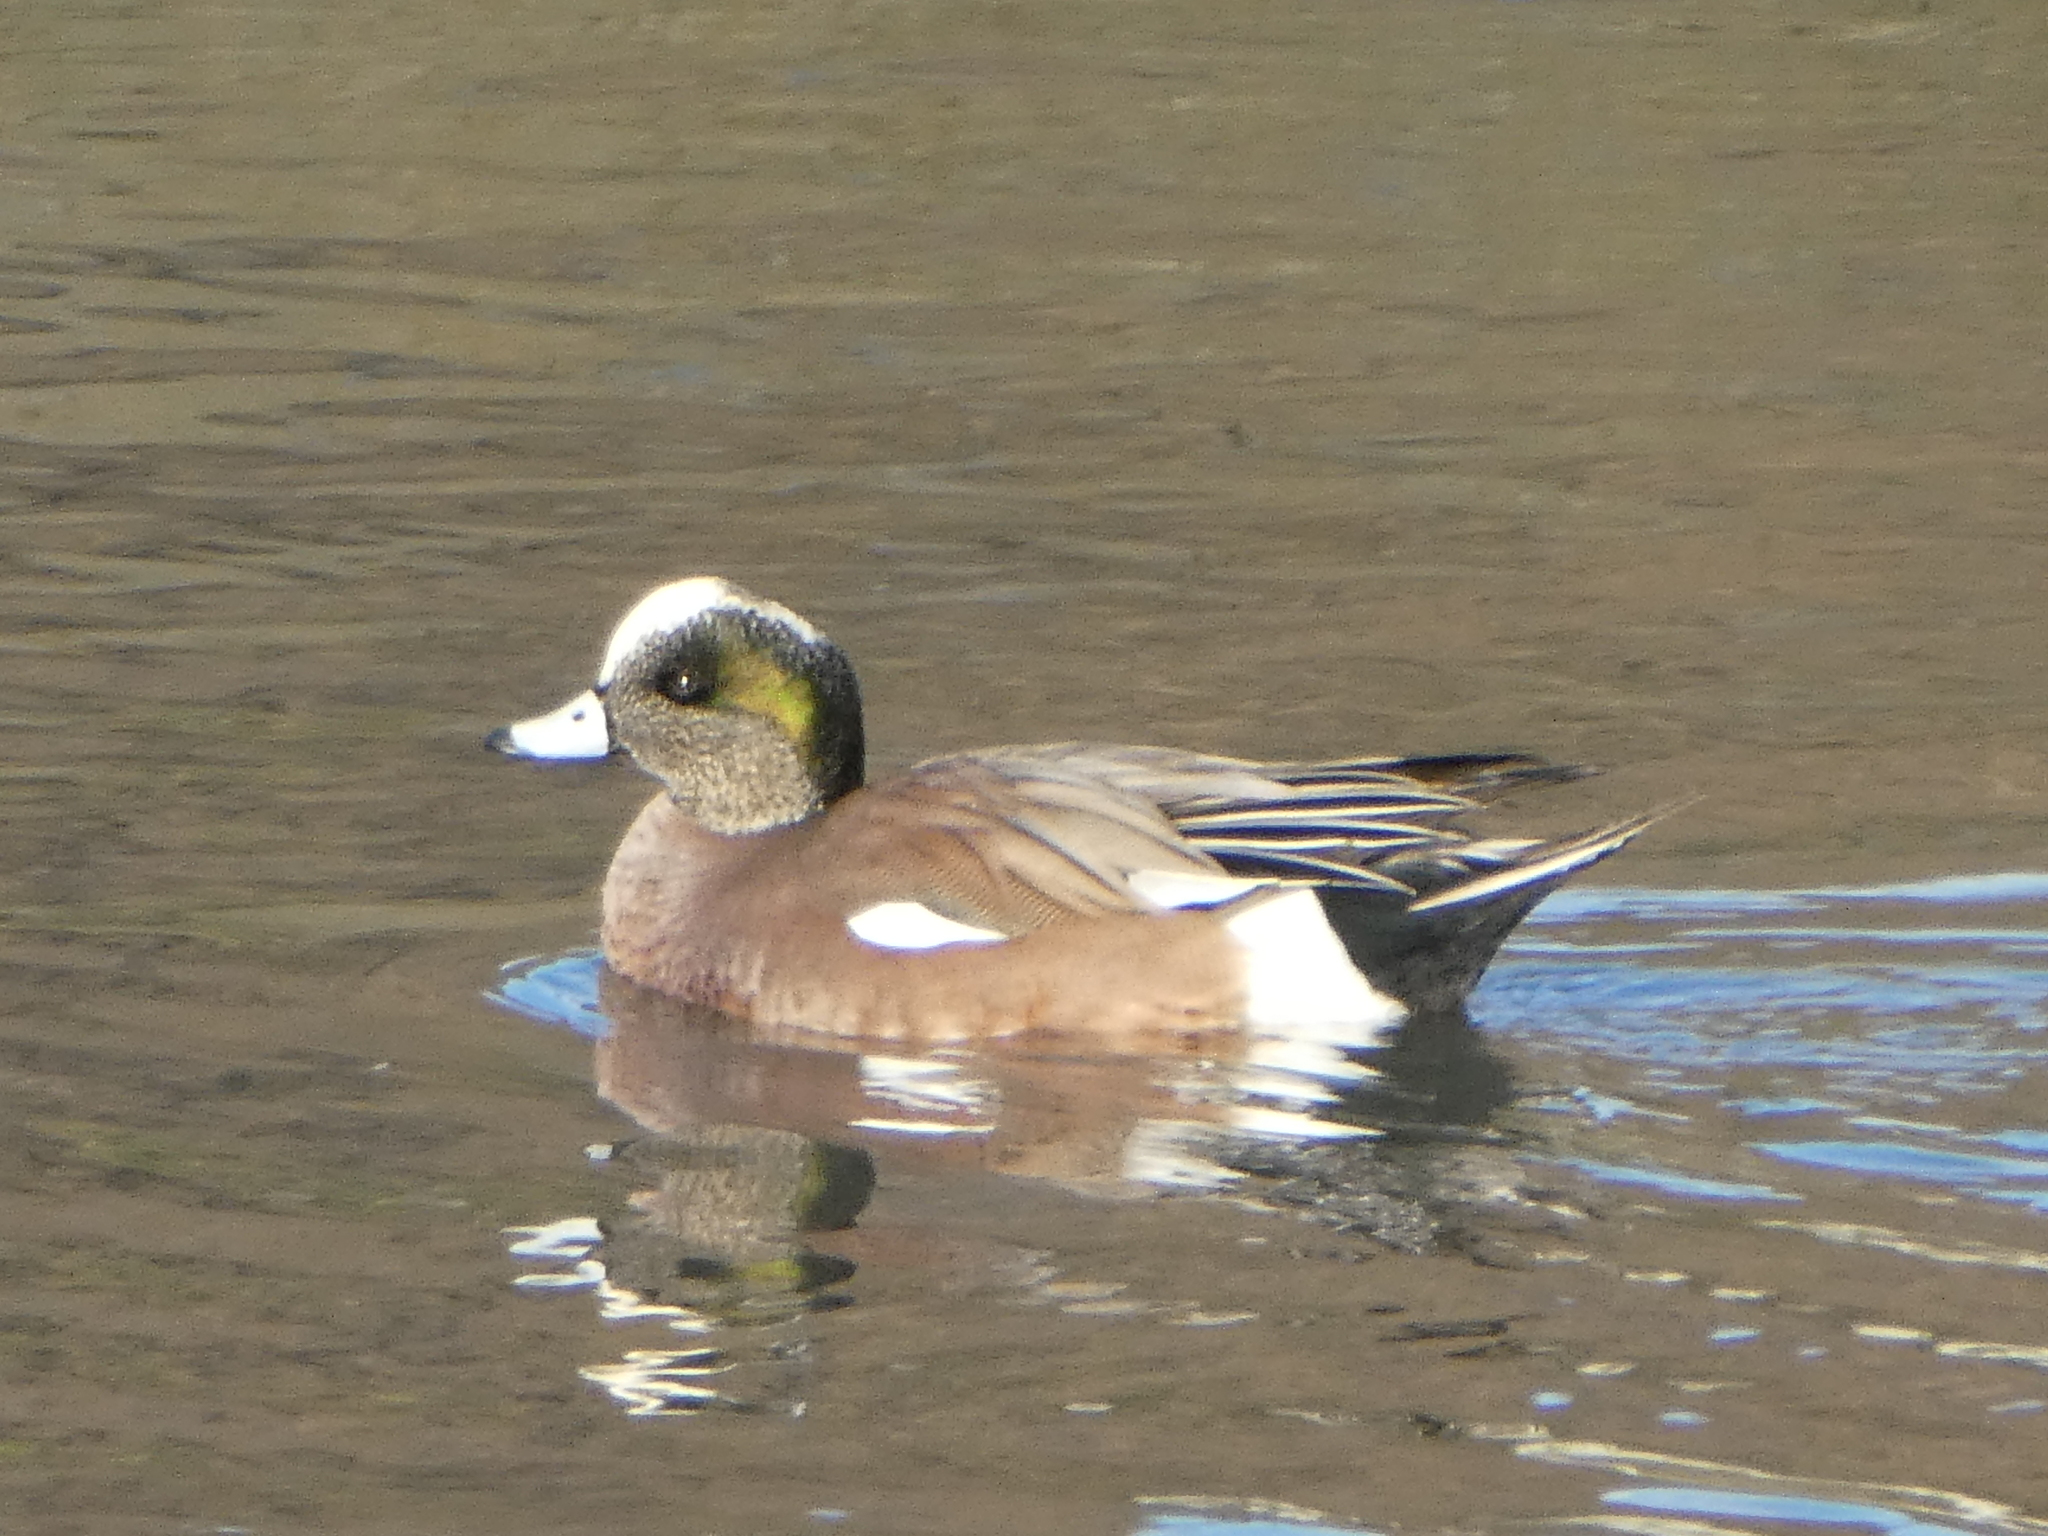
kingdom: Animalia
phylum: Chordata
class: Aves
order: Anseriformes
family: Anatidae
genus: Mareca
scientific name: Mareca americana
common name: American wigeon
